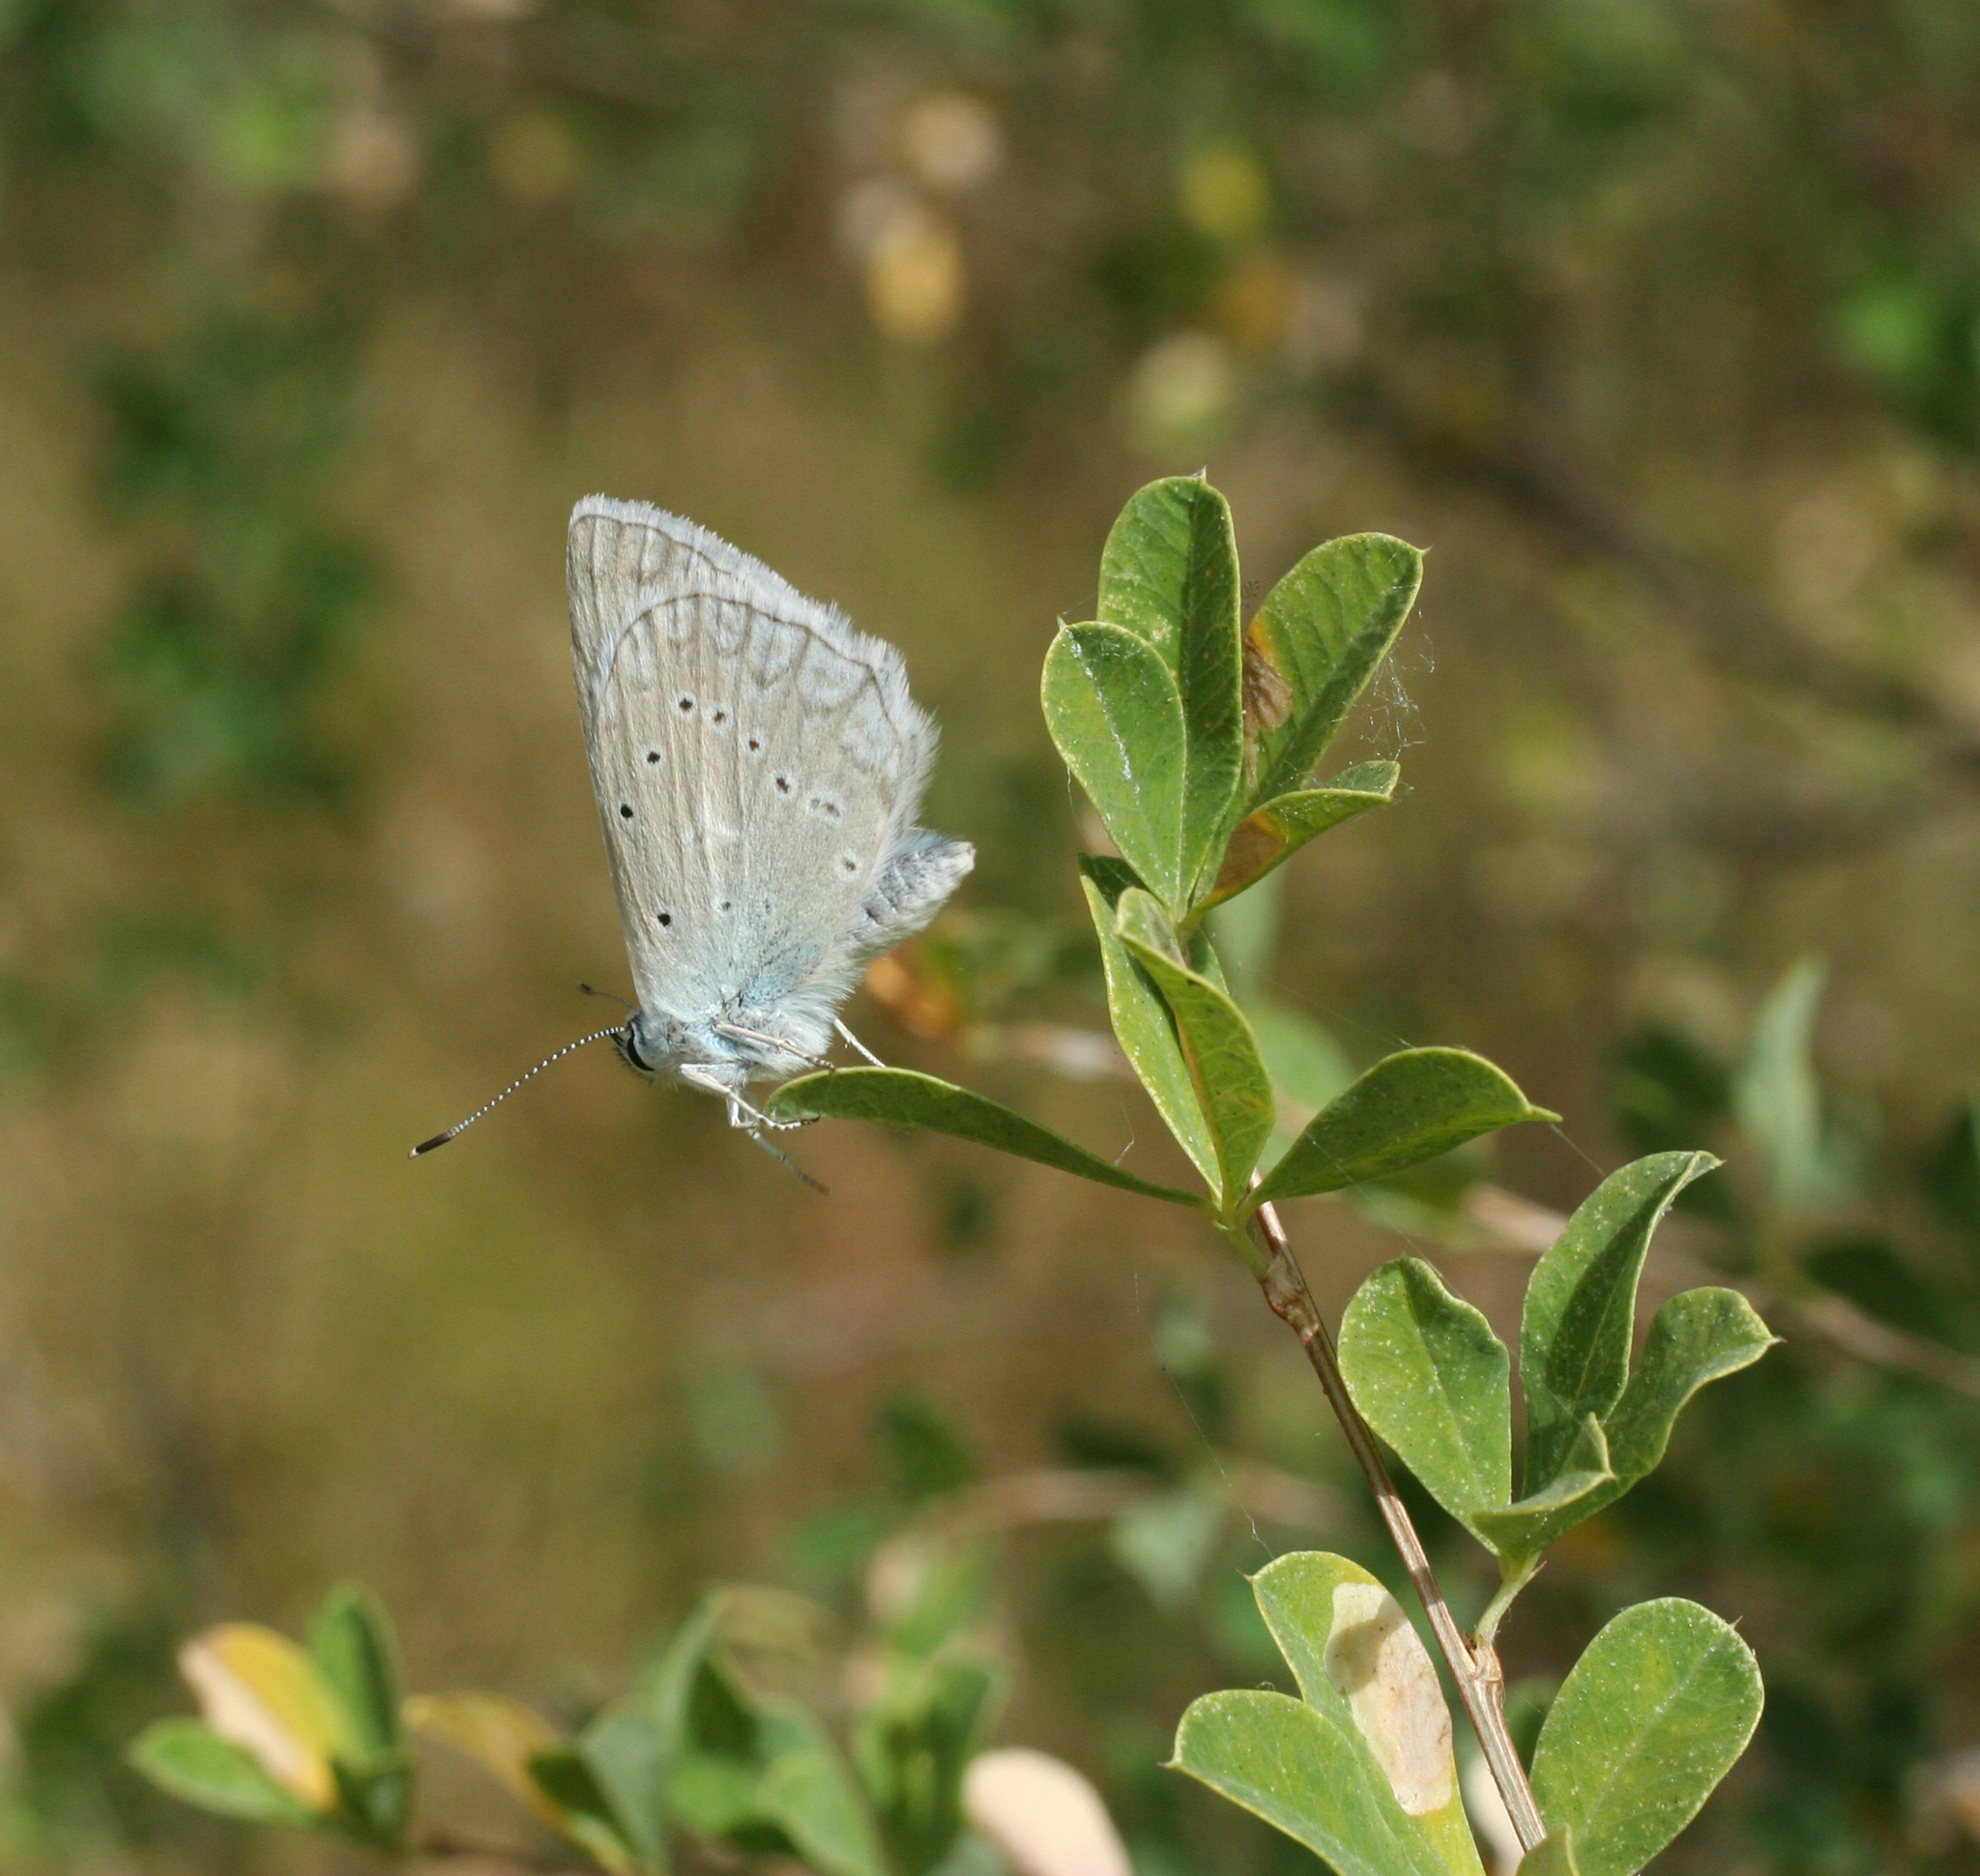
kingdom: Animalia
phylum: Arthropoda
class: Insecta
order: Lepidoptera
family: Lycaenidae
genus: Polyommatus
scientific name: Polyommatus daphnis
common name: Meleager's blue
